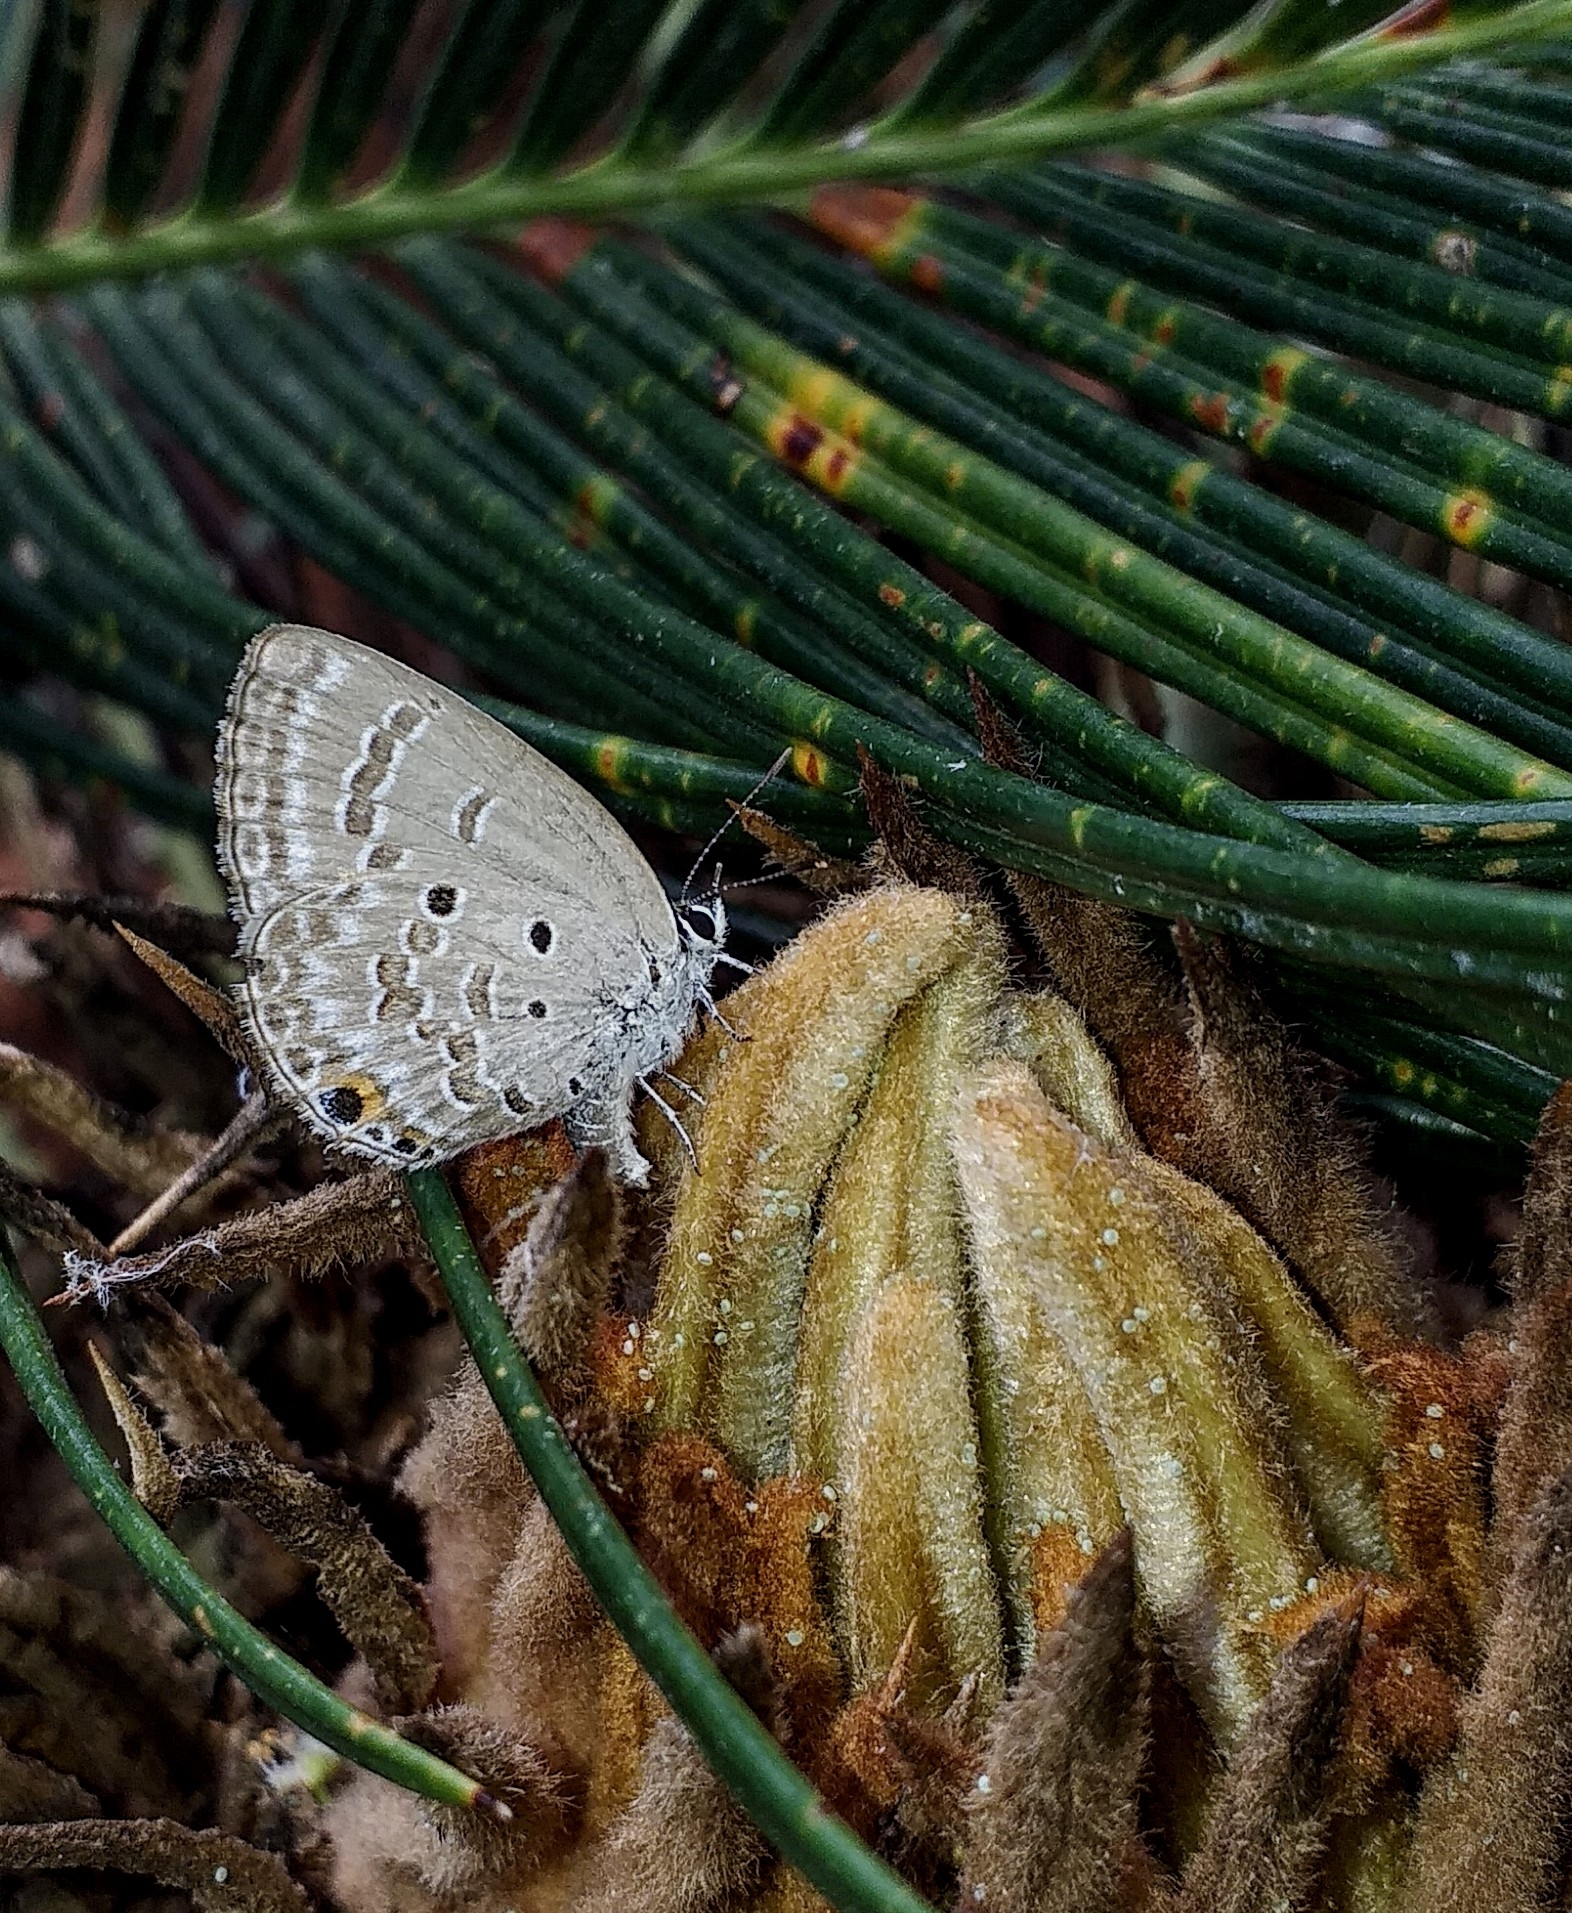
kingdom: Animalia
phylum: Arthropoda
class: Insecta
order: Lepidoptera
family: Lycaenidae
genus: Luthrodes
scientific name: Luthrodes pandava
